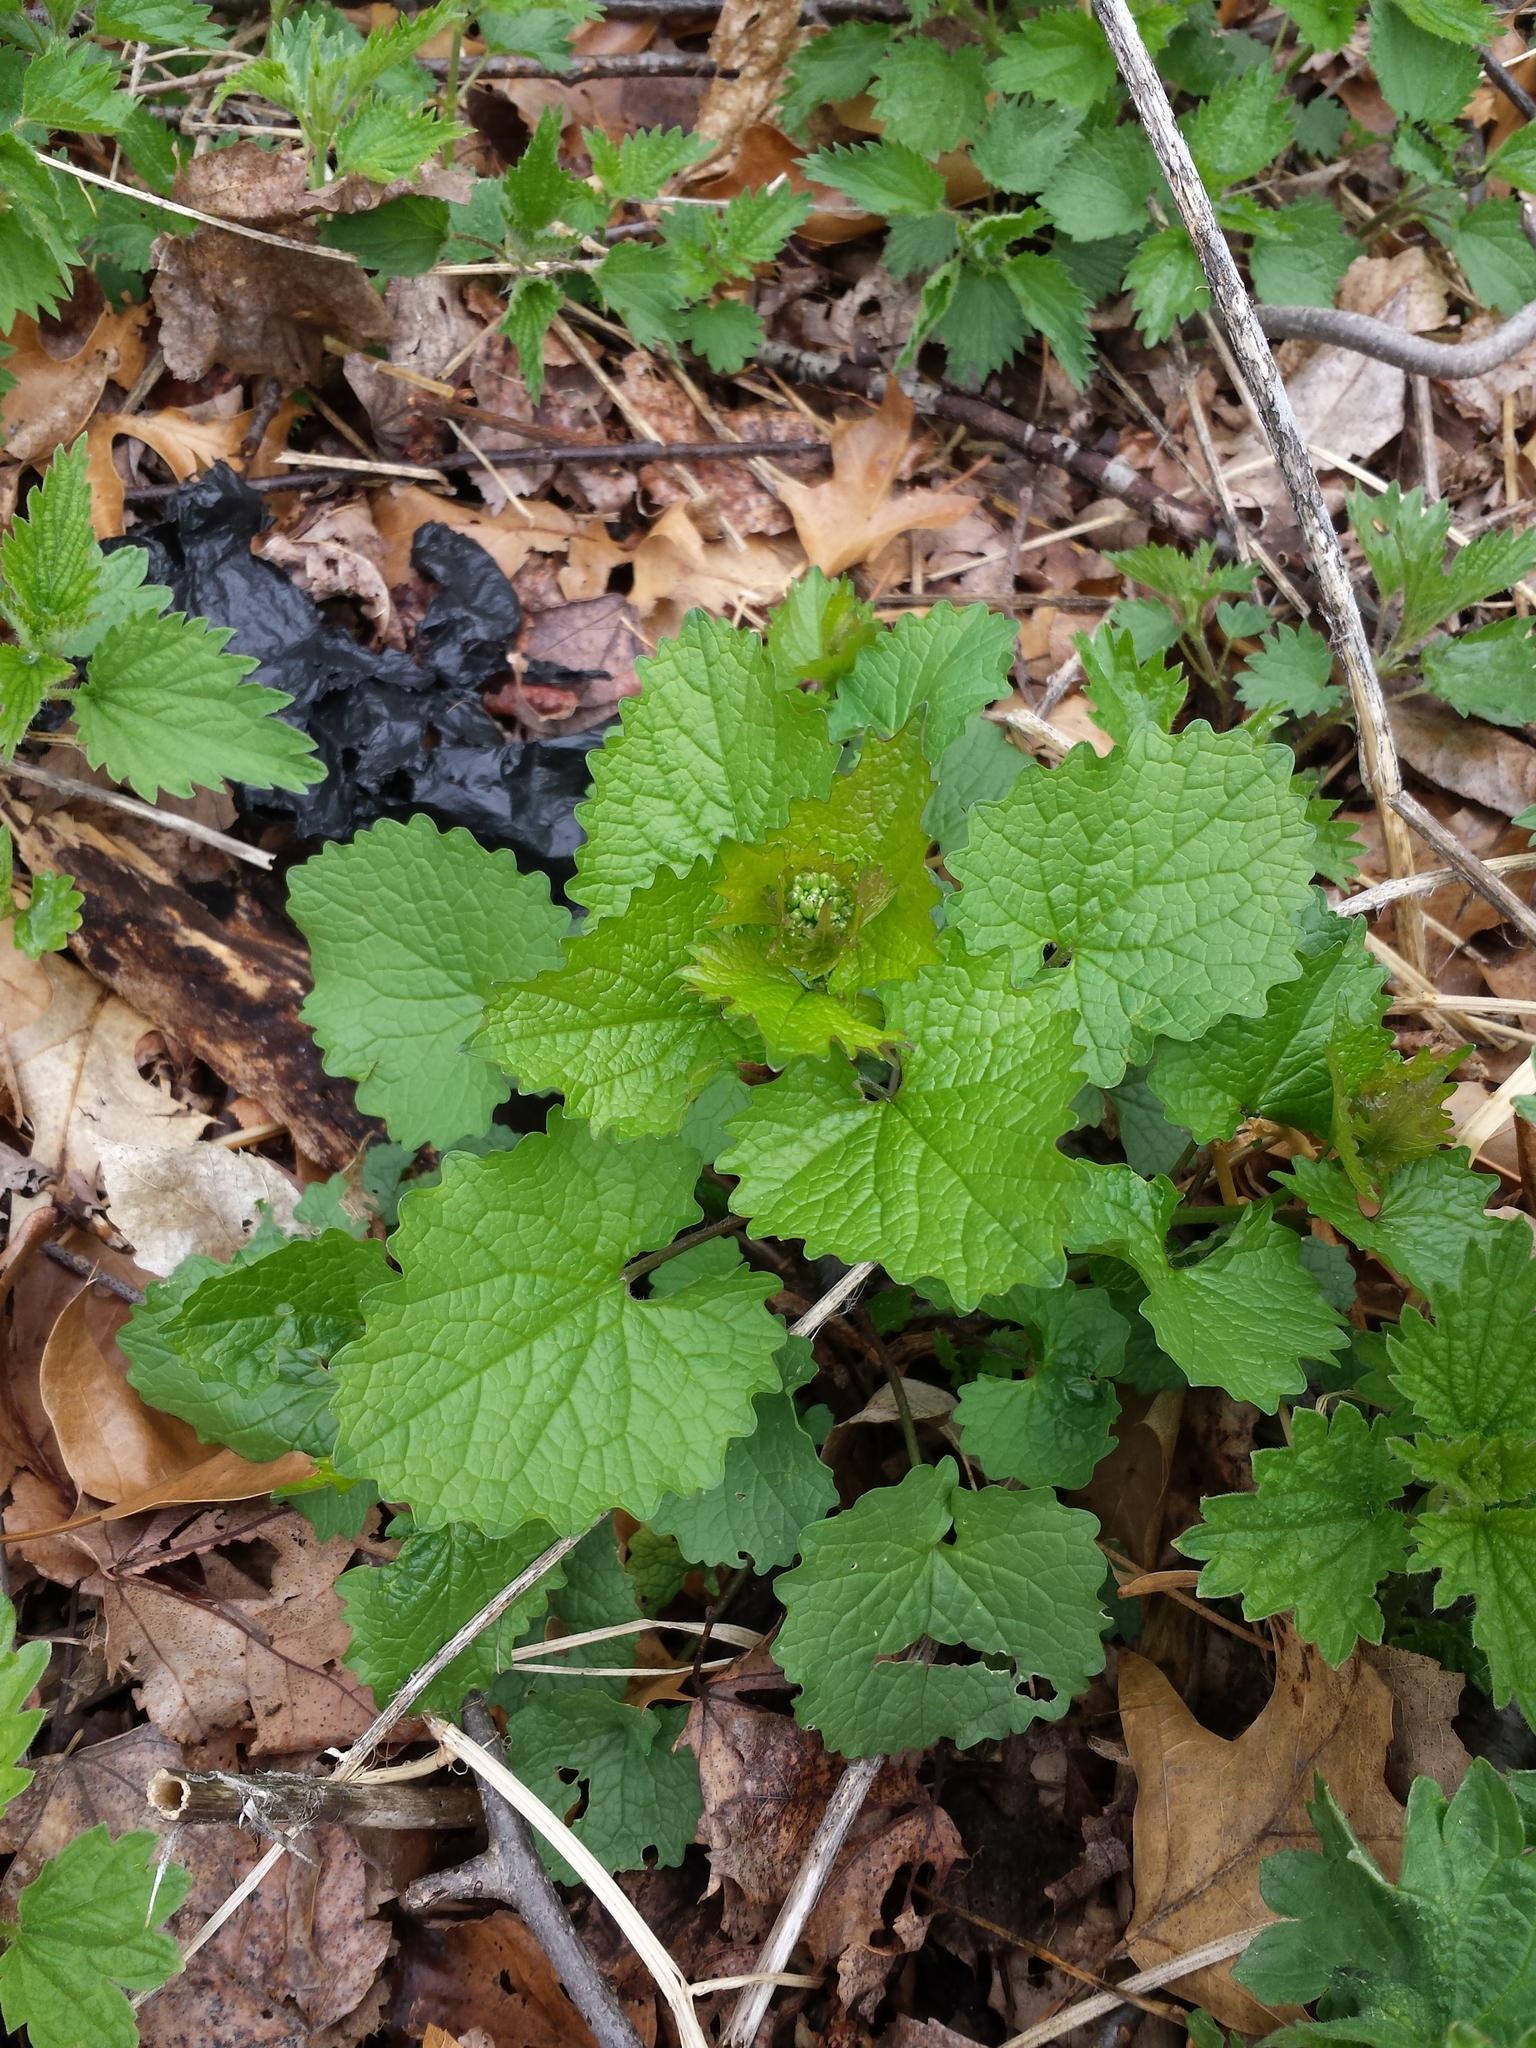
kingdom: Plantae
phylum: Tracheophyta
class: Magnoliopsida
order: Brassicales
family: Brassicaceae
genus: Alliaria
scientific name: Alliaria petiolata
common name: Garlic mustard
